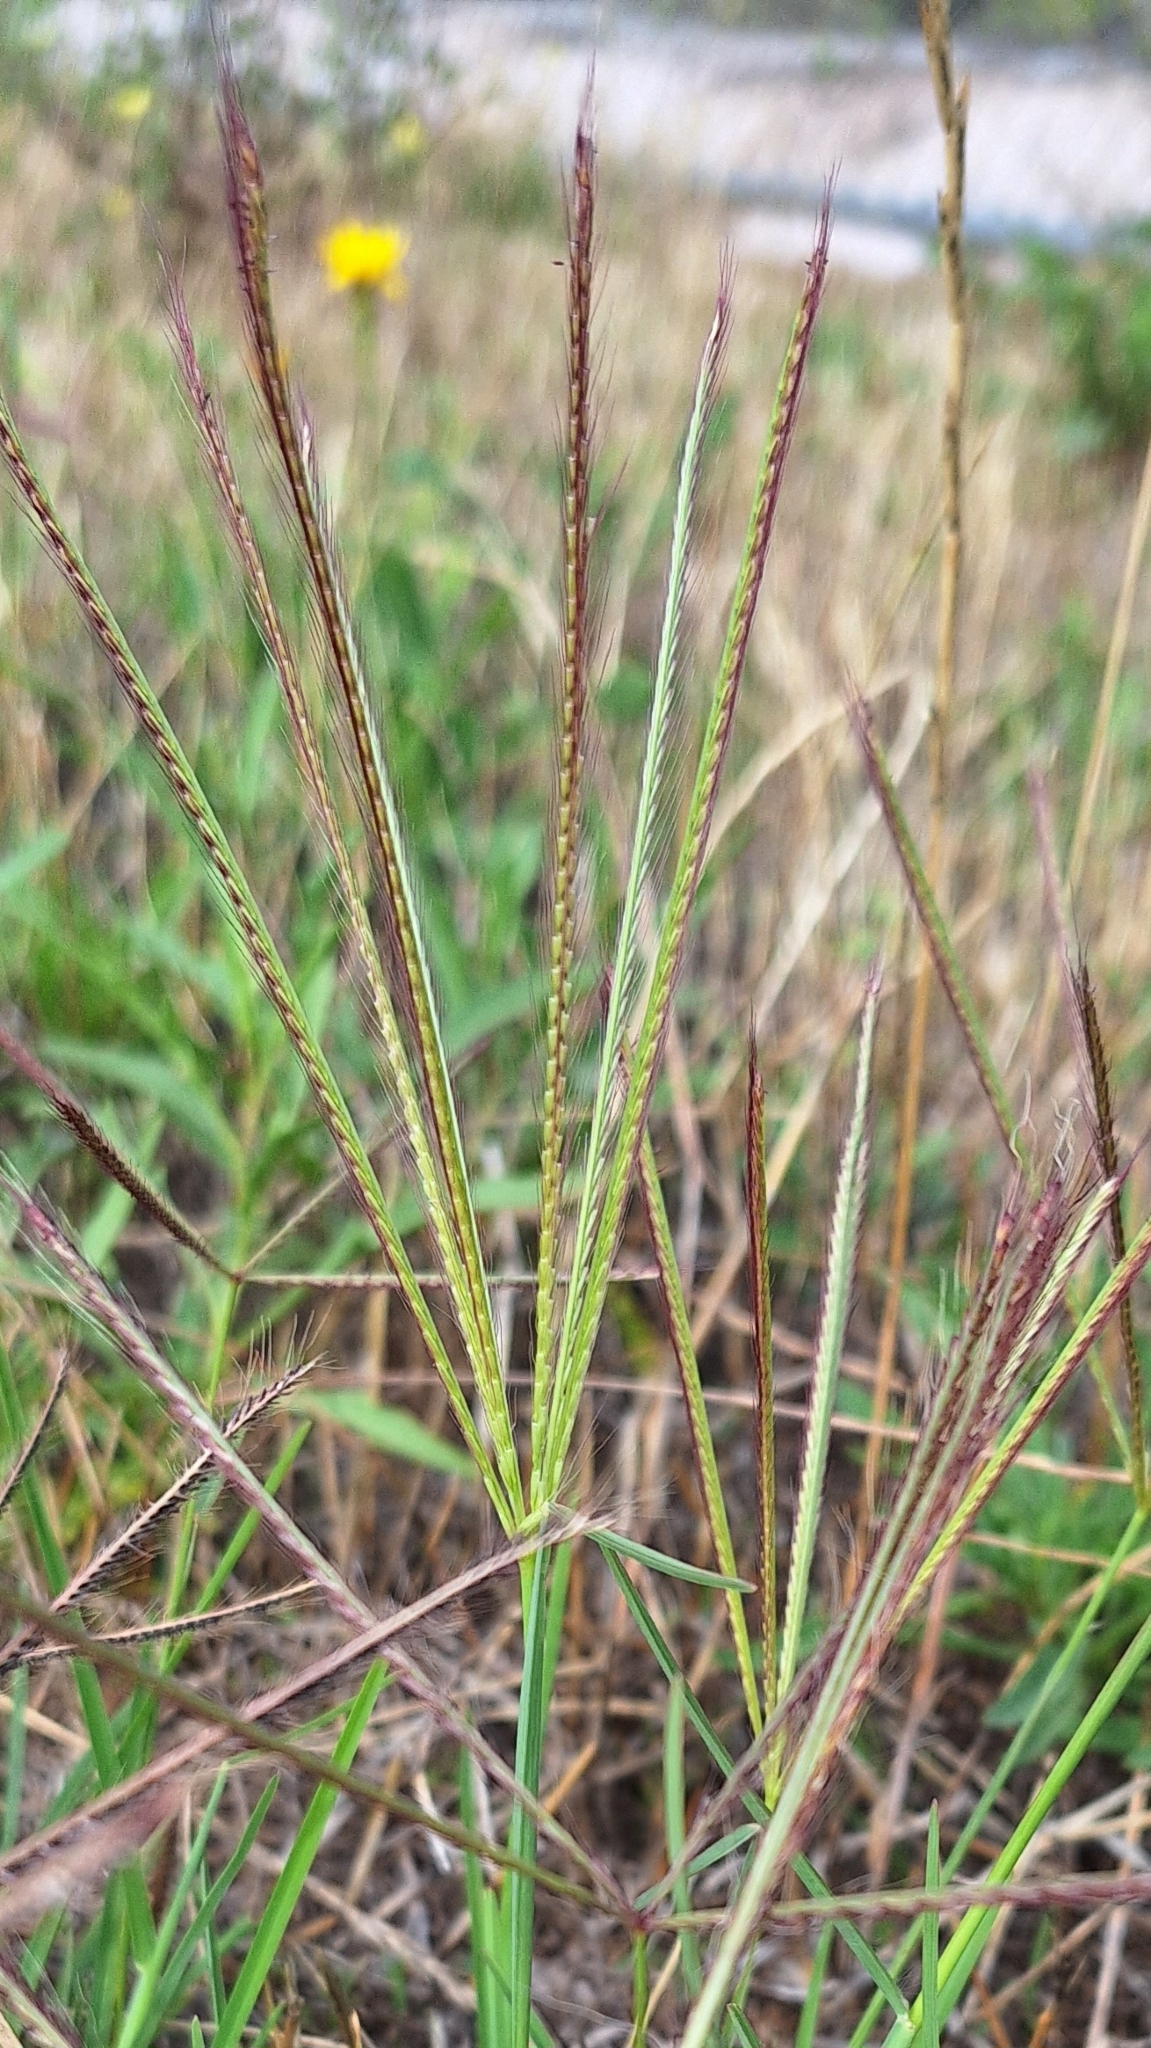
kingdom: Plantae
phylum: Tracheophyta
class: Liliopsida
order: Poales
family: Poaceae
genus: Chloris
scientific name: Chloris truncata
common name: Windmill-grass
